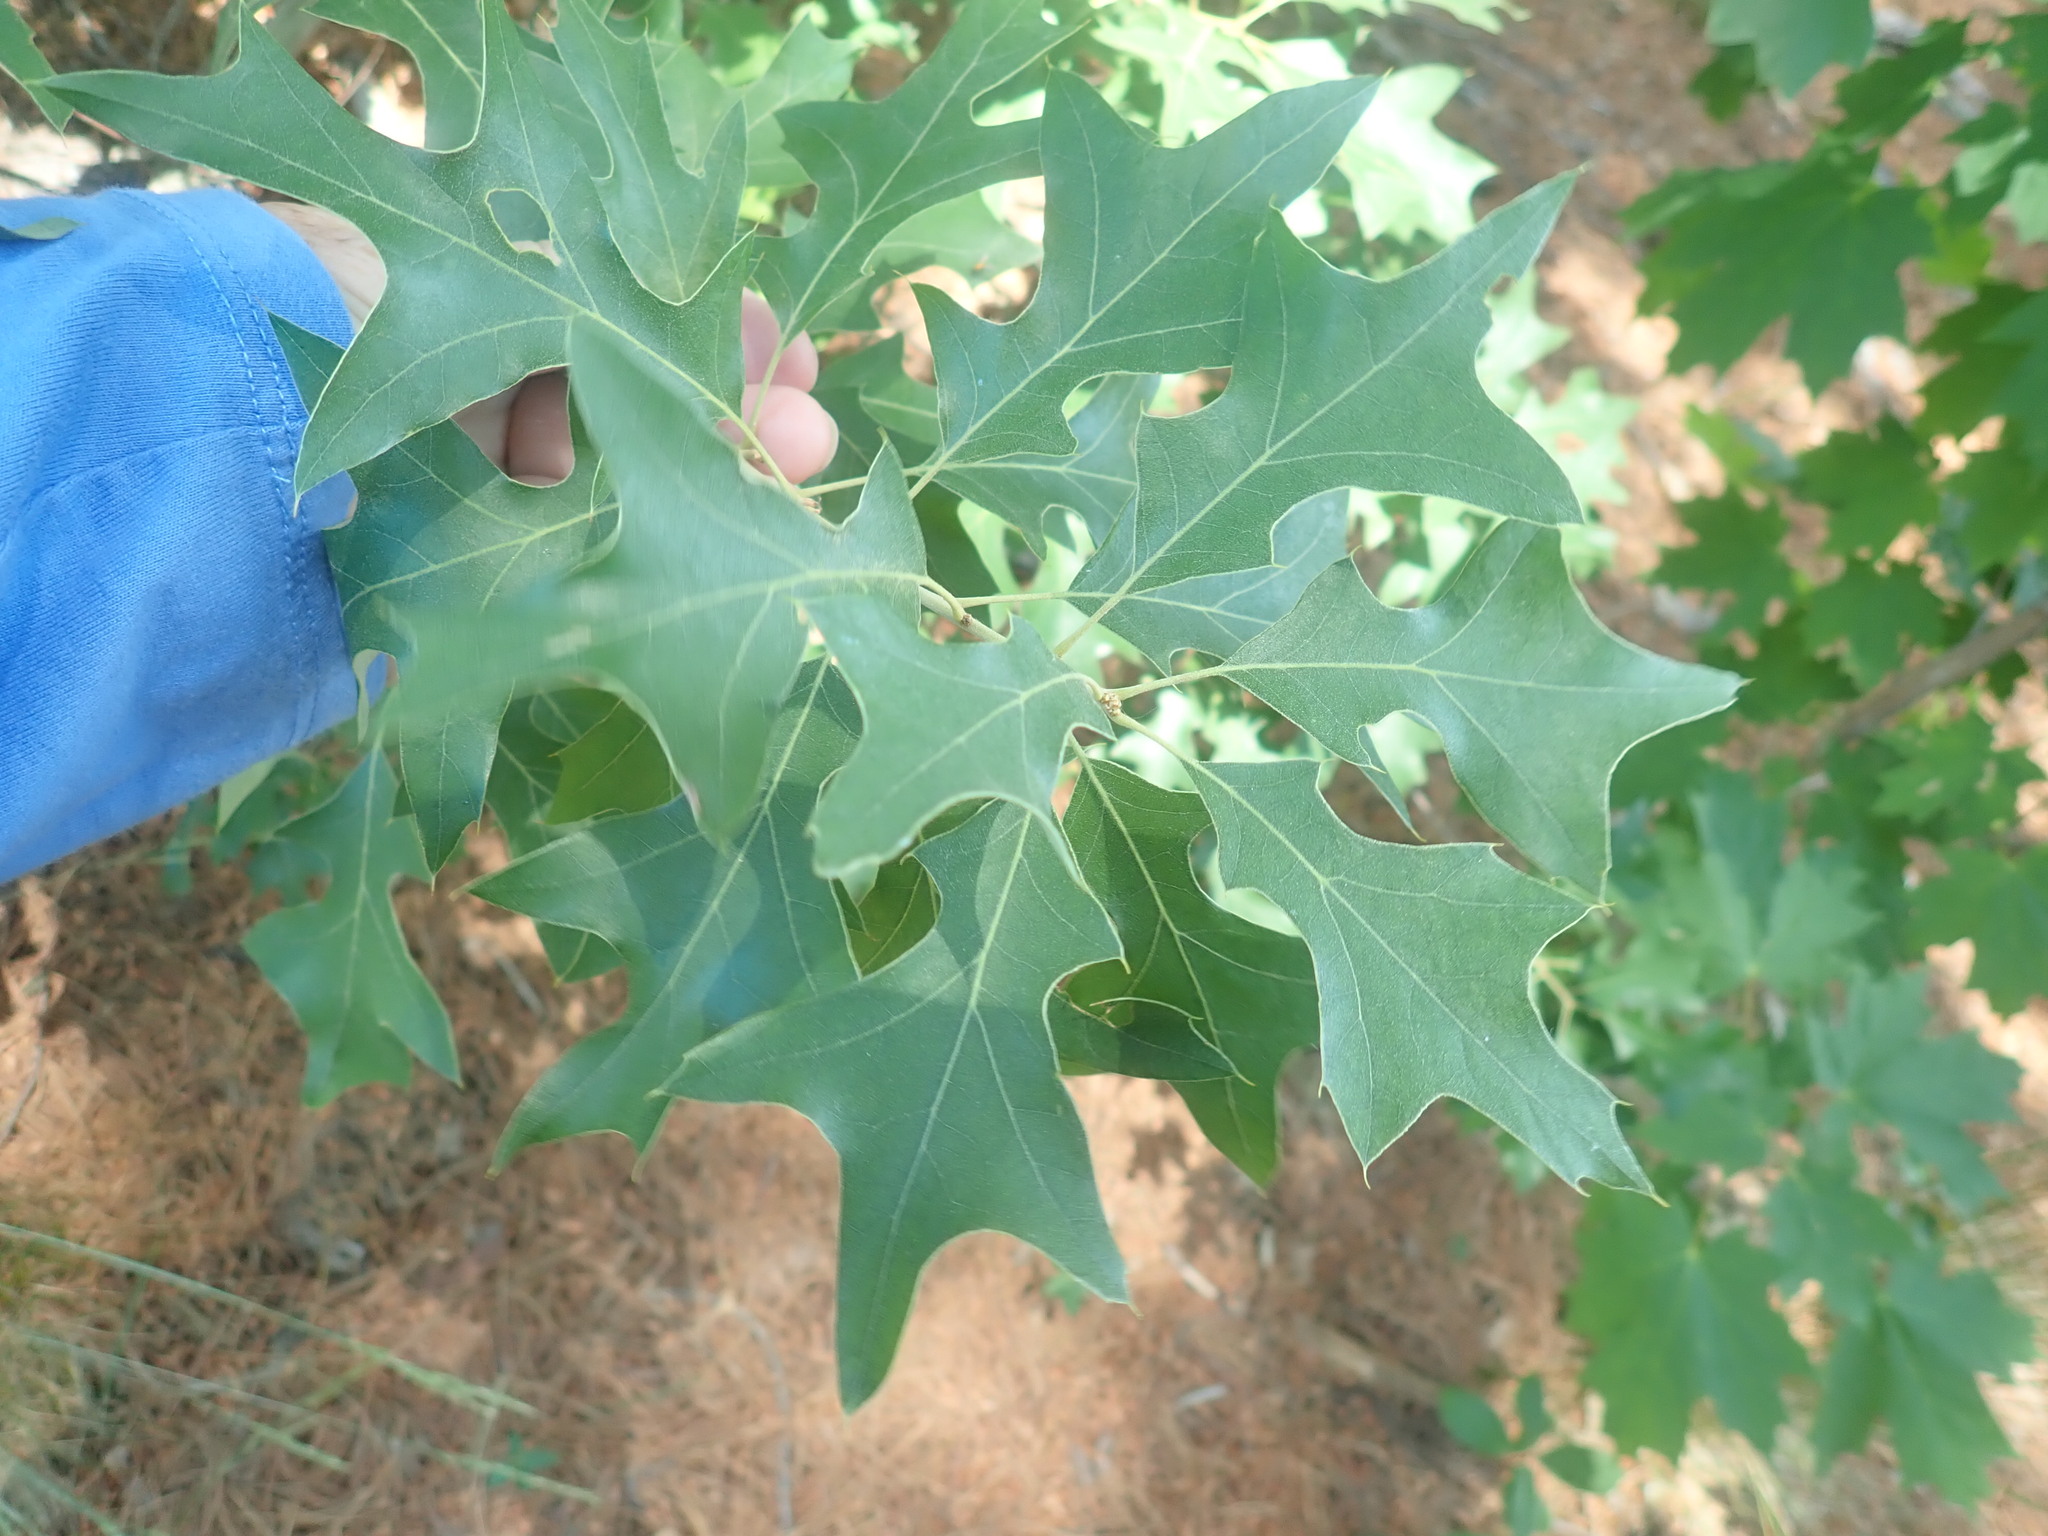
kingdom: Plantae
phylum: Tracheophyta
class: Magnoliopsida
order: Fagales
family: Fagaceae
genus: Quercus
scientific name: Quercus ilicifolia
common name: Bear oak
